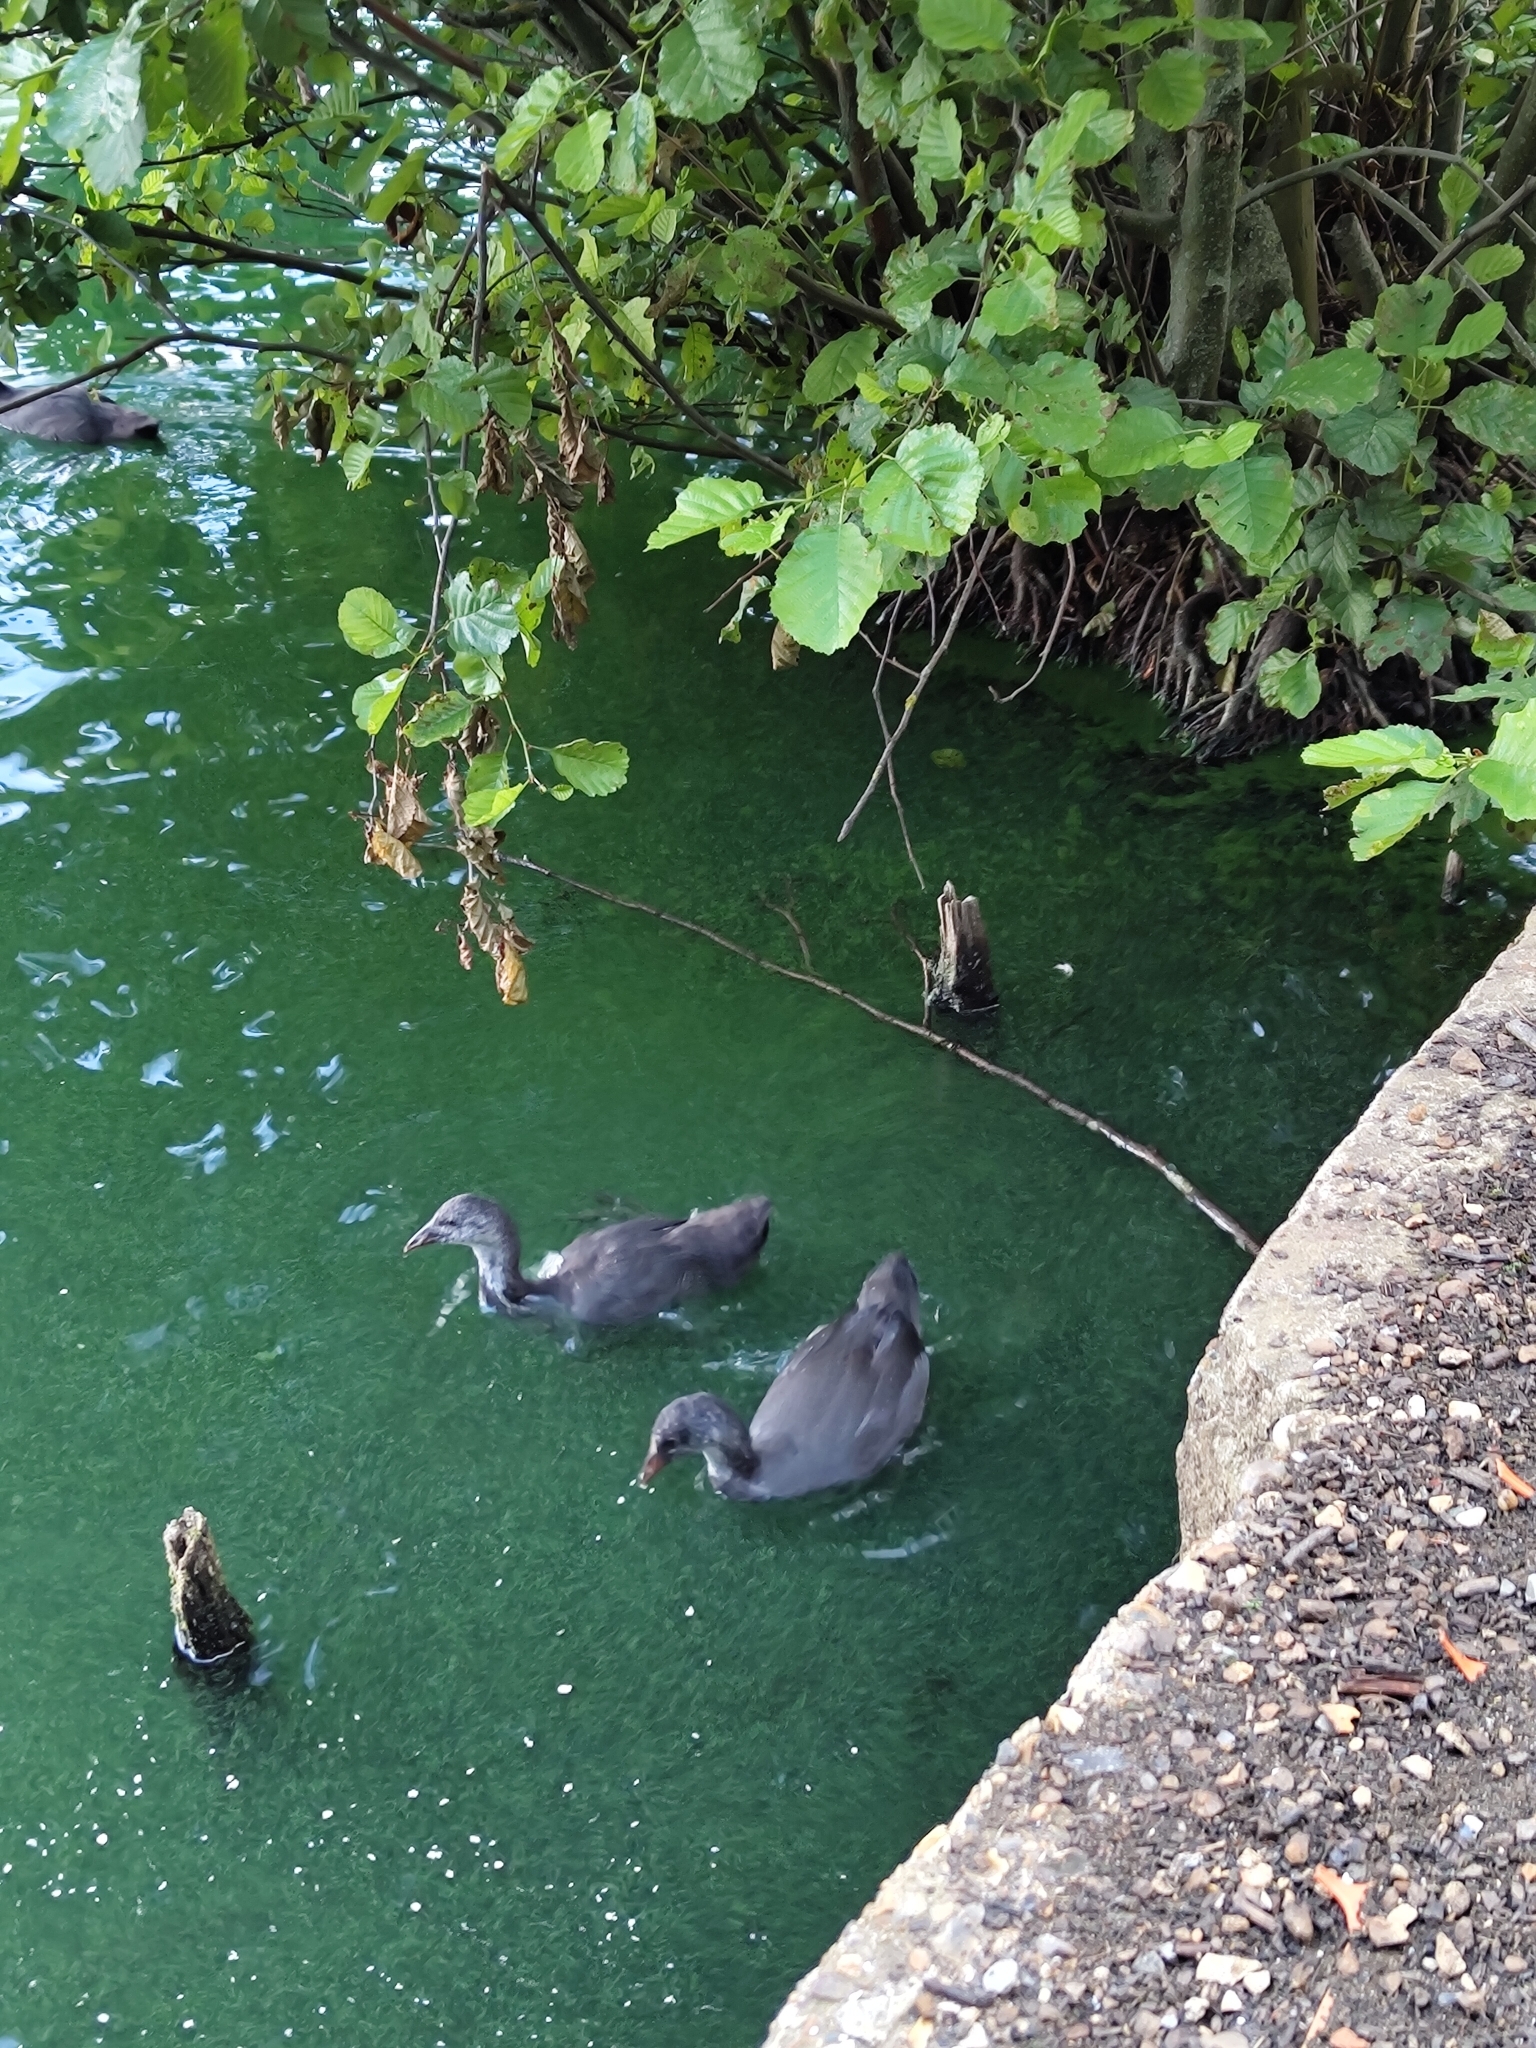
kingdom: Animalia
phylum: Chordata
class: Aves
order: Gruiformes
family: Rallidae
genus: Fulica
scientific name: Fulica atra
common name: Eurasian coot
